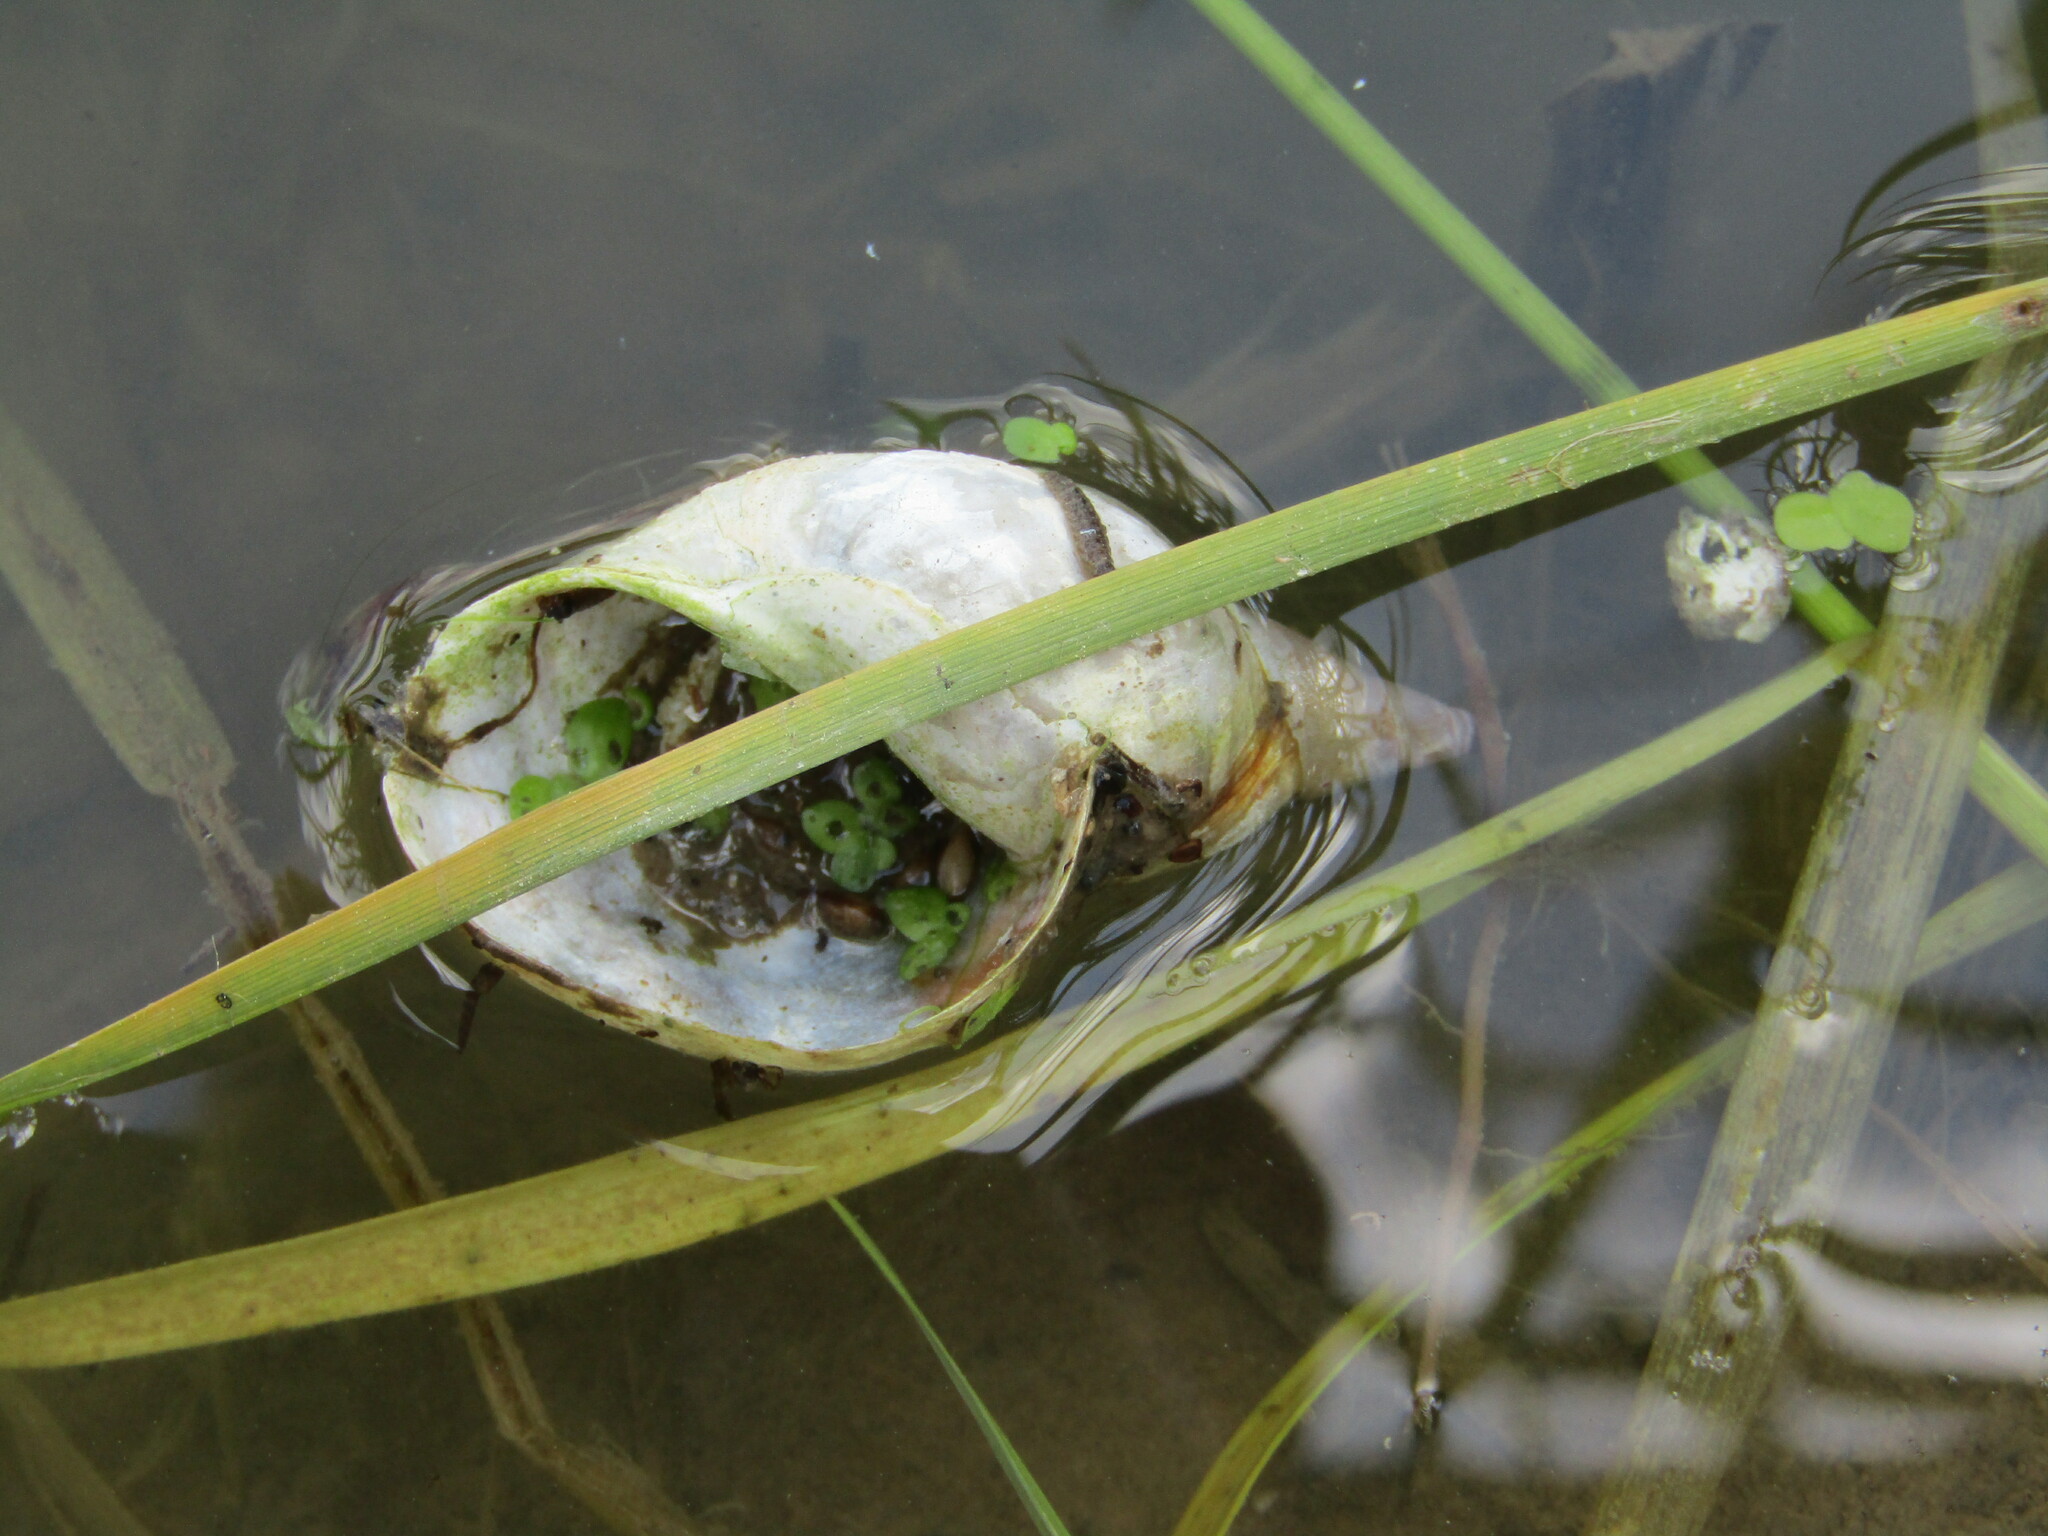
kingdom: Animalia
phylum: Mollusca
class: Gastropoda
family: Lymnaeidae
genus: Lymnaea
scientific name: Lymnaea stagnalis
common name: Great pond snail
